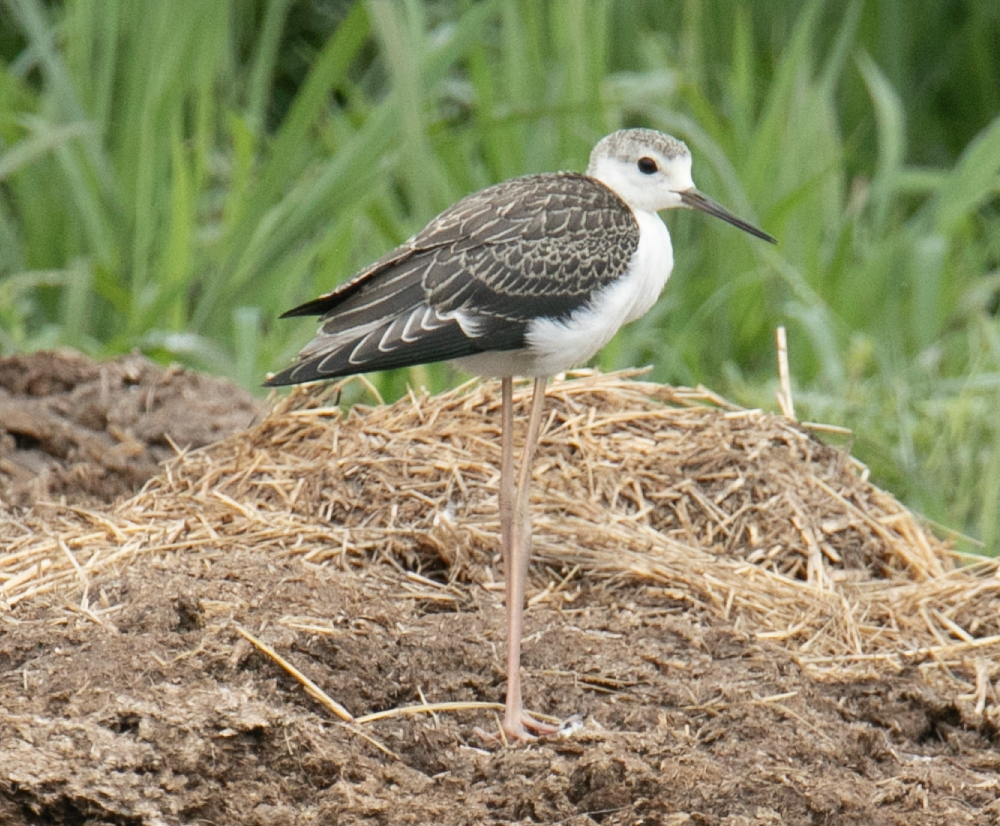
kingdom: Animalia
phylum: Chordata
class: Aves
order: Charadriiformes
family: Recurvirostridae
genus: Himantopus
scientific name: Himantopus himantopus
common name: Black-winged stilt
